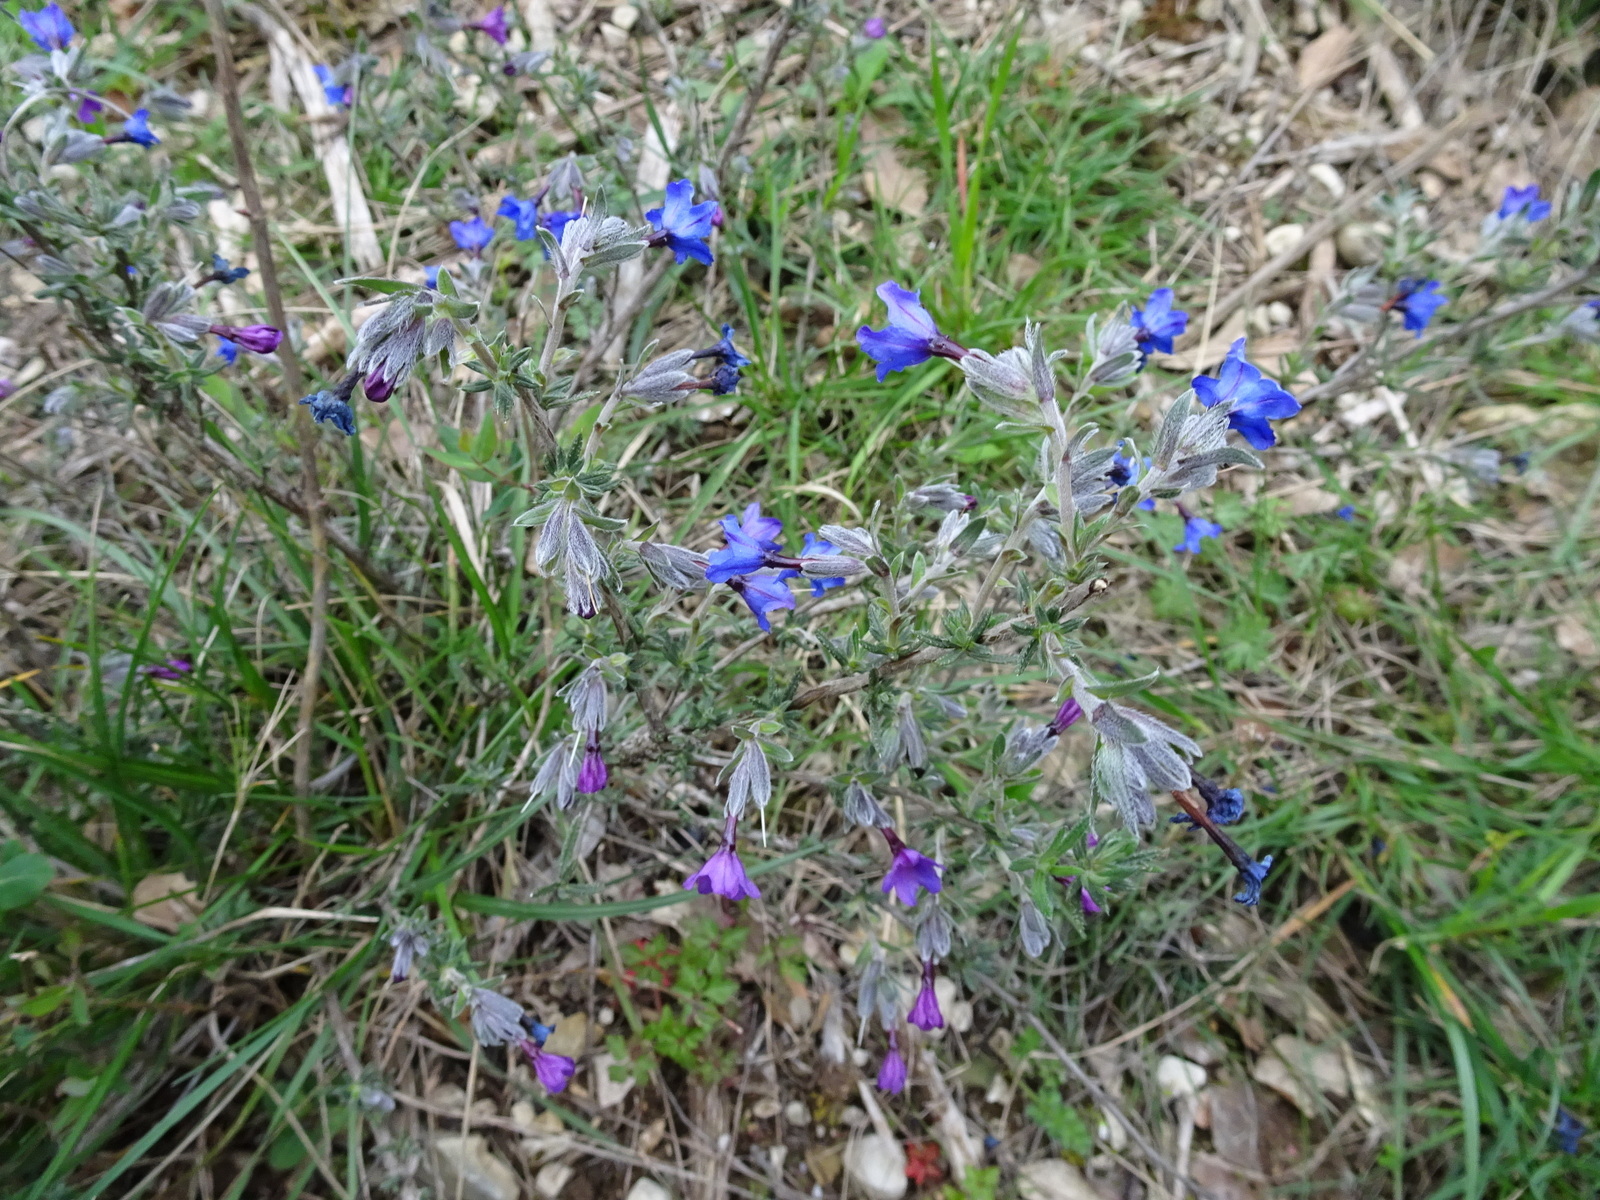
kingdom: Plantae
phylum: Tracheophyta
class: Magnoliopsida
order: Boraginales
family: Boraginaceae
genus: Lithodora
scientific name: Lithodora fruticosa
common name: Shrubby gromwell
